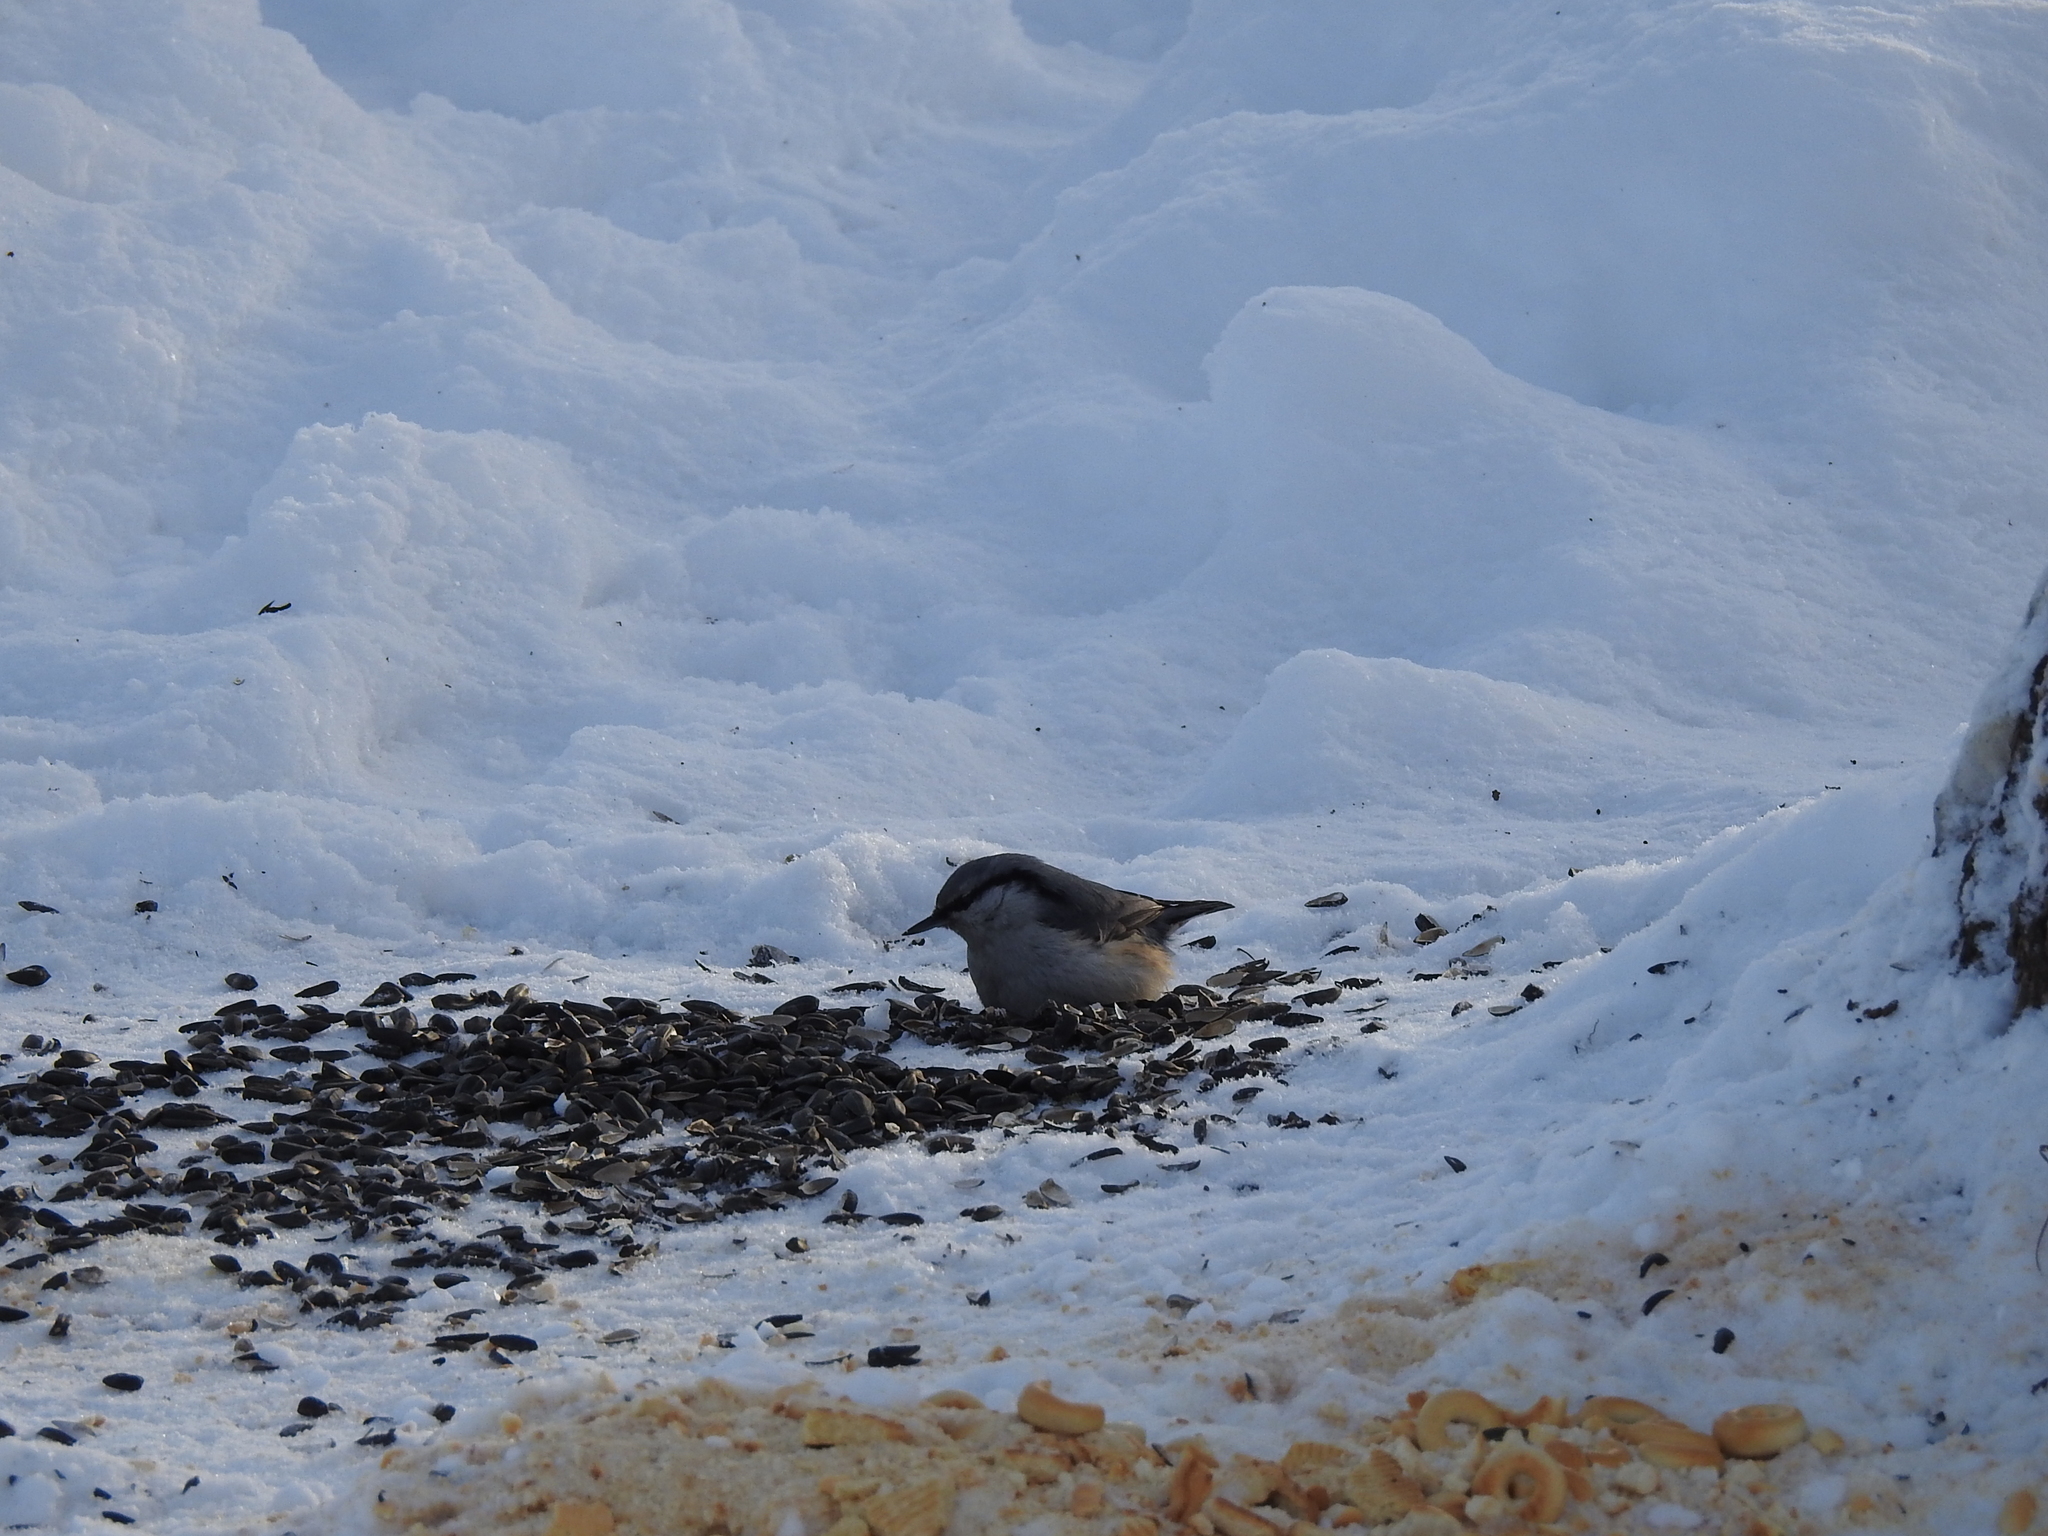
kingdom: Animalia
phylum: Chordata
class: Aves
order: Passeriformes
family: Sittidae
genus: Sitta
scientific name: Sitta europaea
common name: Eurasian nuthatch
